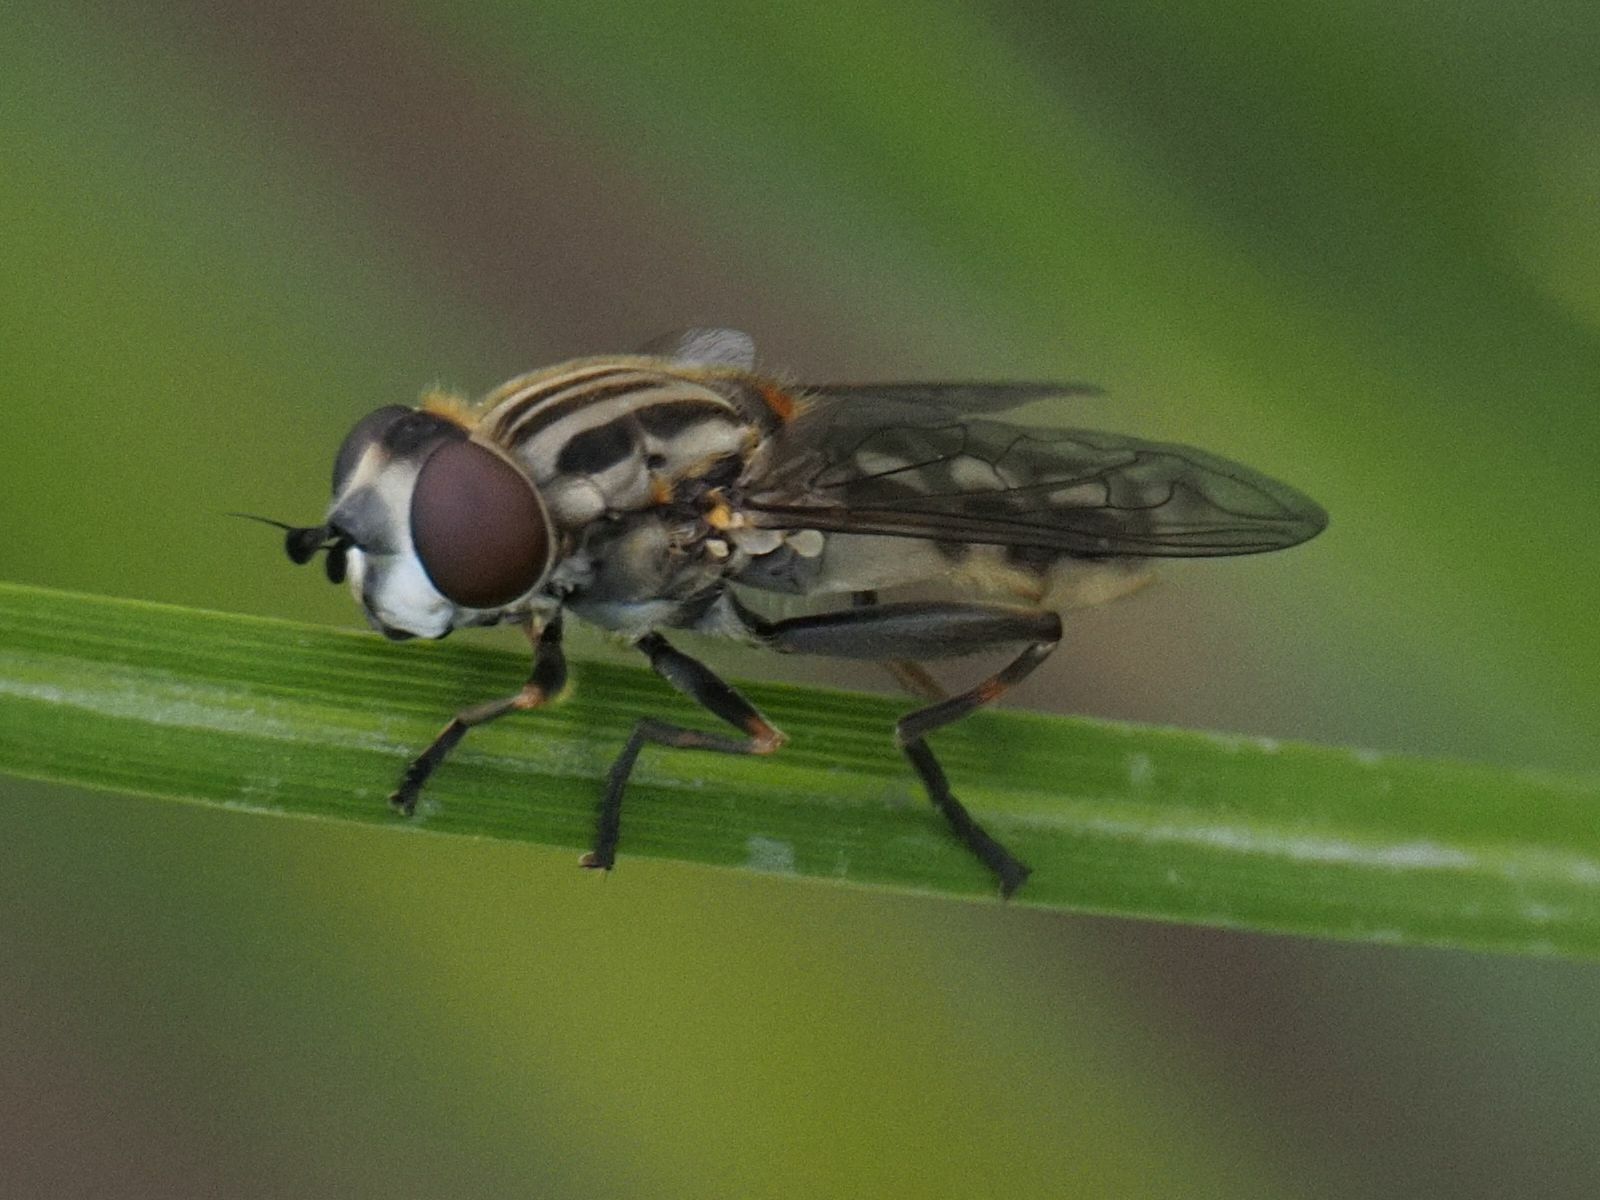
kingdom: Animalia
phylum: Arthropoda
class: Insecta
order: Diptera
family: Syrphidae
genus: Lejops
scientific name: Lejops vittatus
